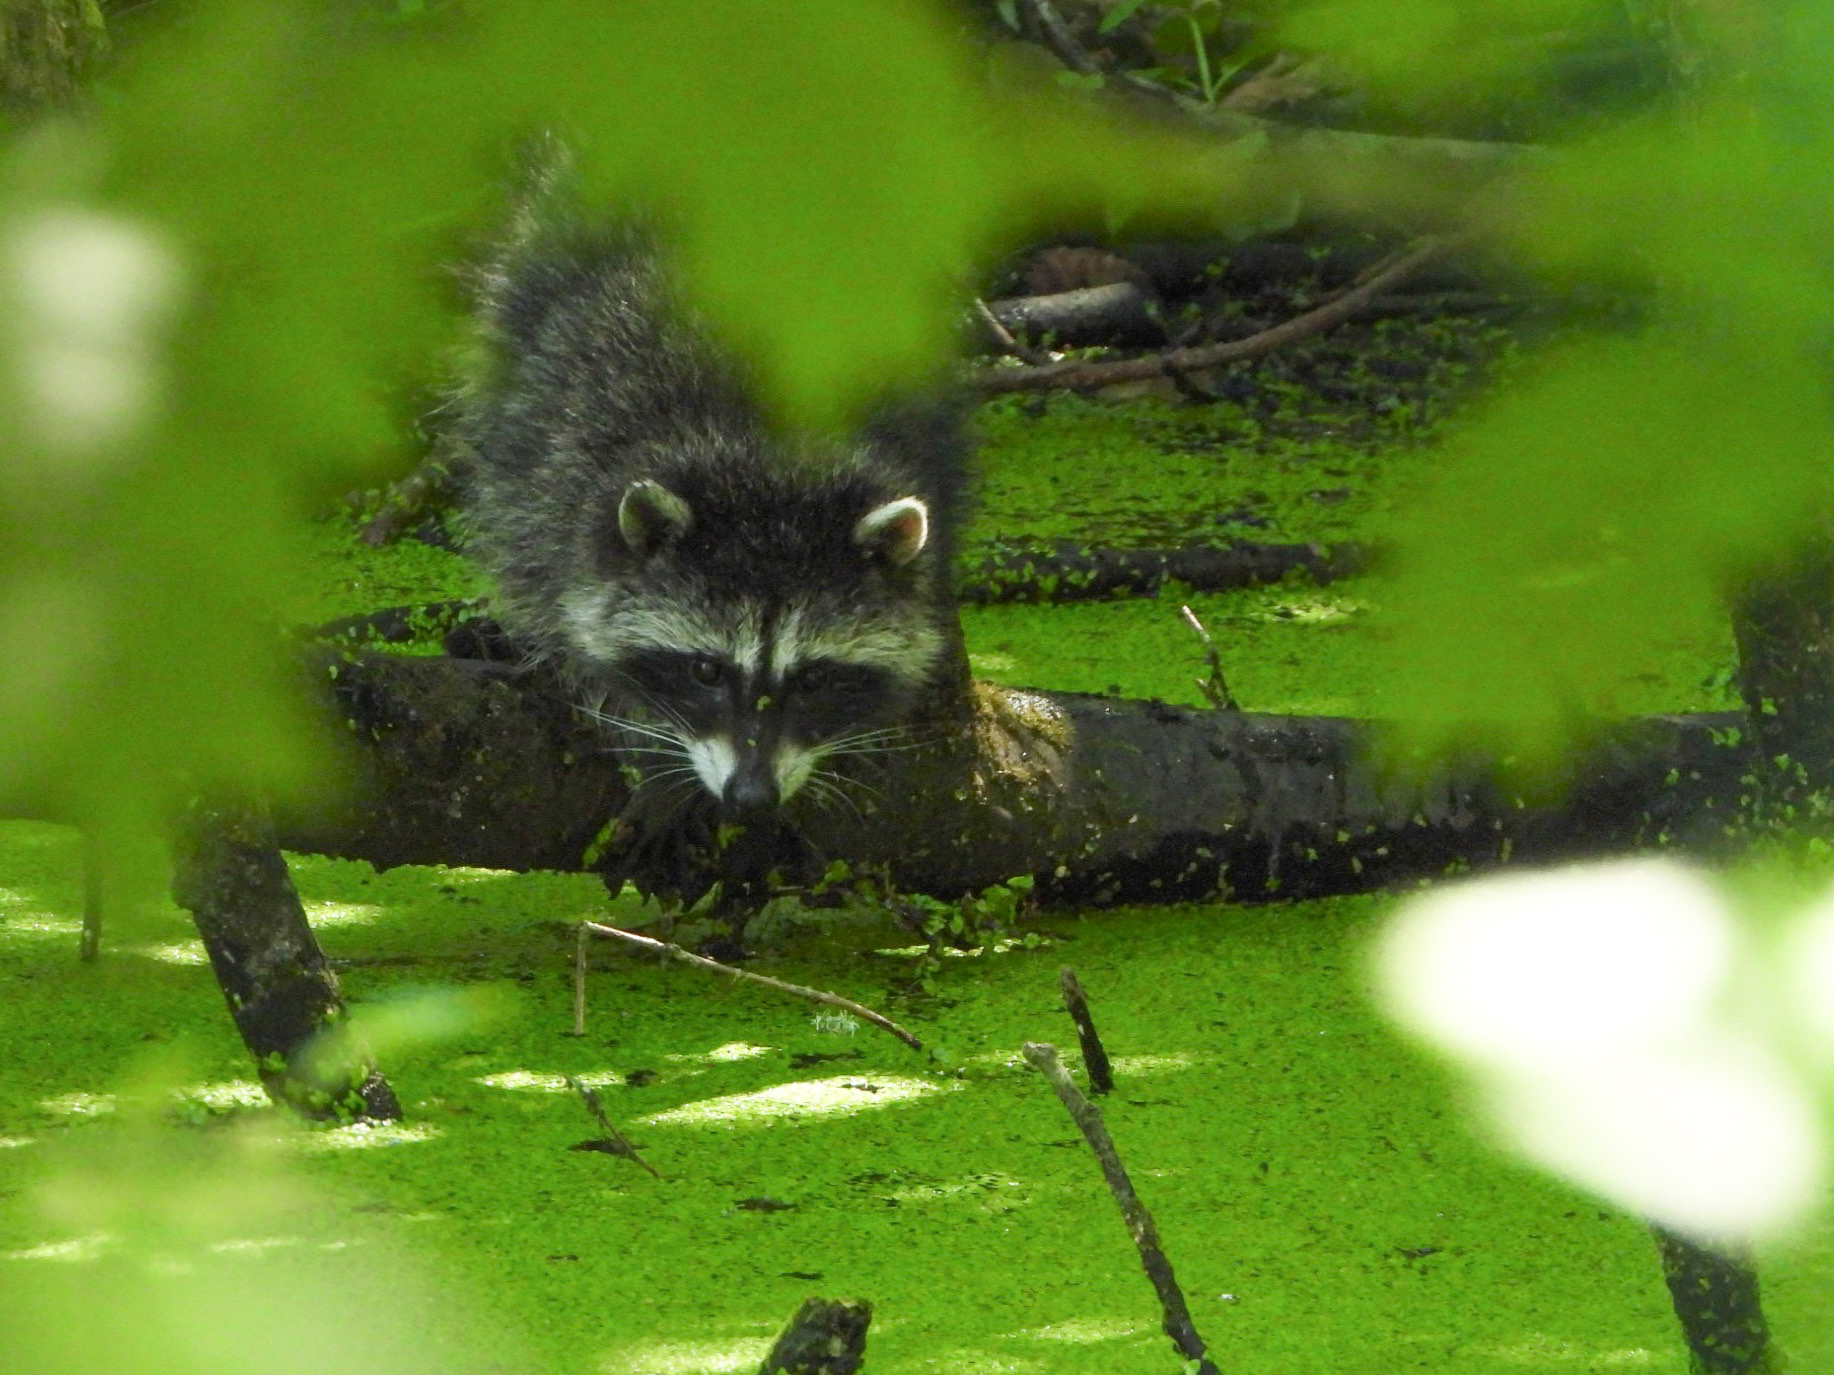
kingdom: Animalia
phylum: Chordata
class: Mammalia
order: Carnivora
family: Procyonidae
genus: Procyon
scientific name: Procyon lotor
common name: Raccoon
